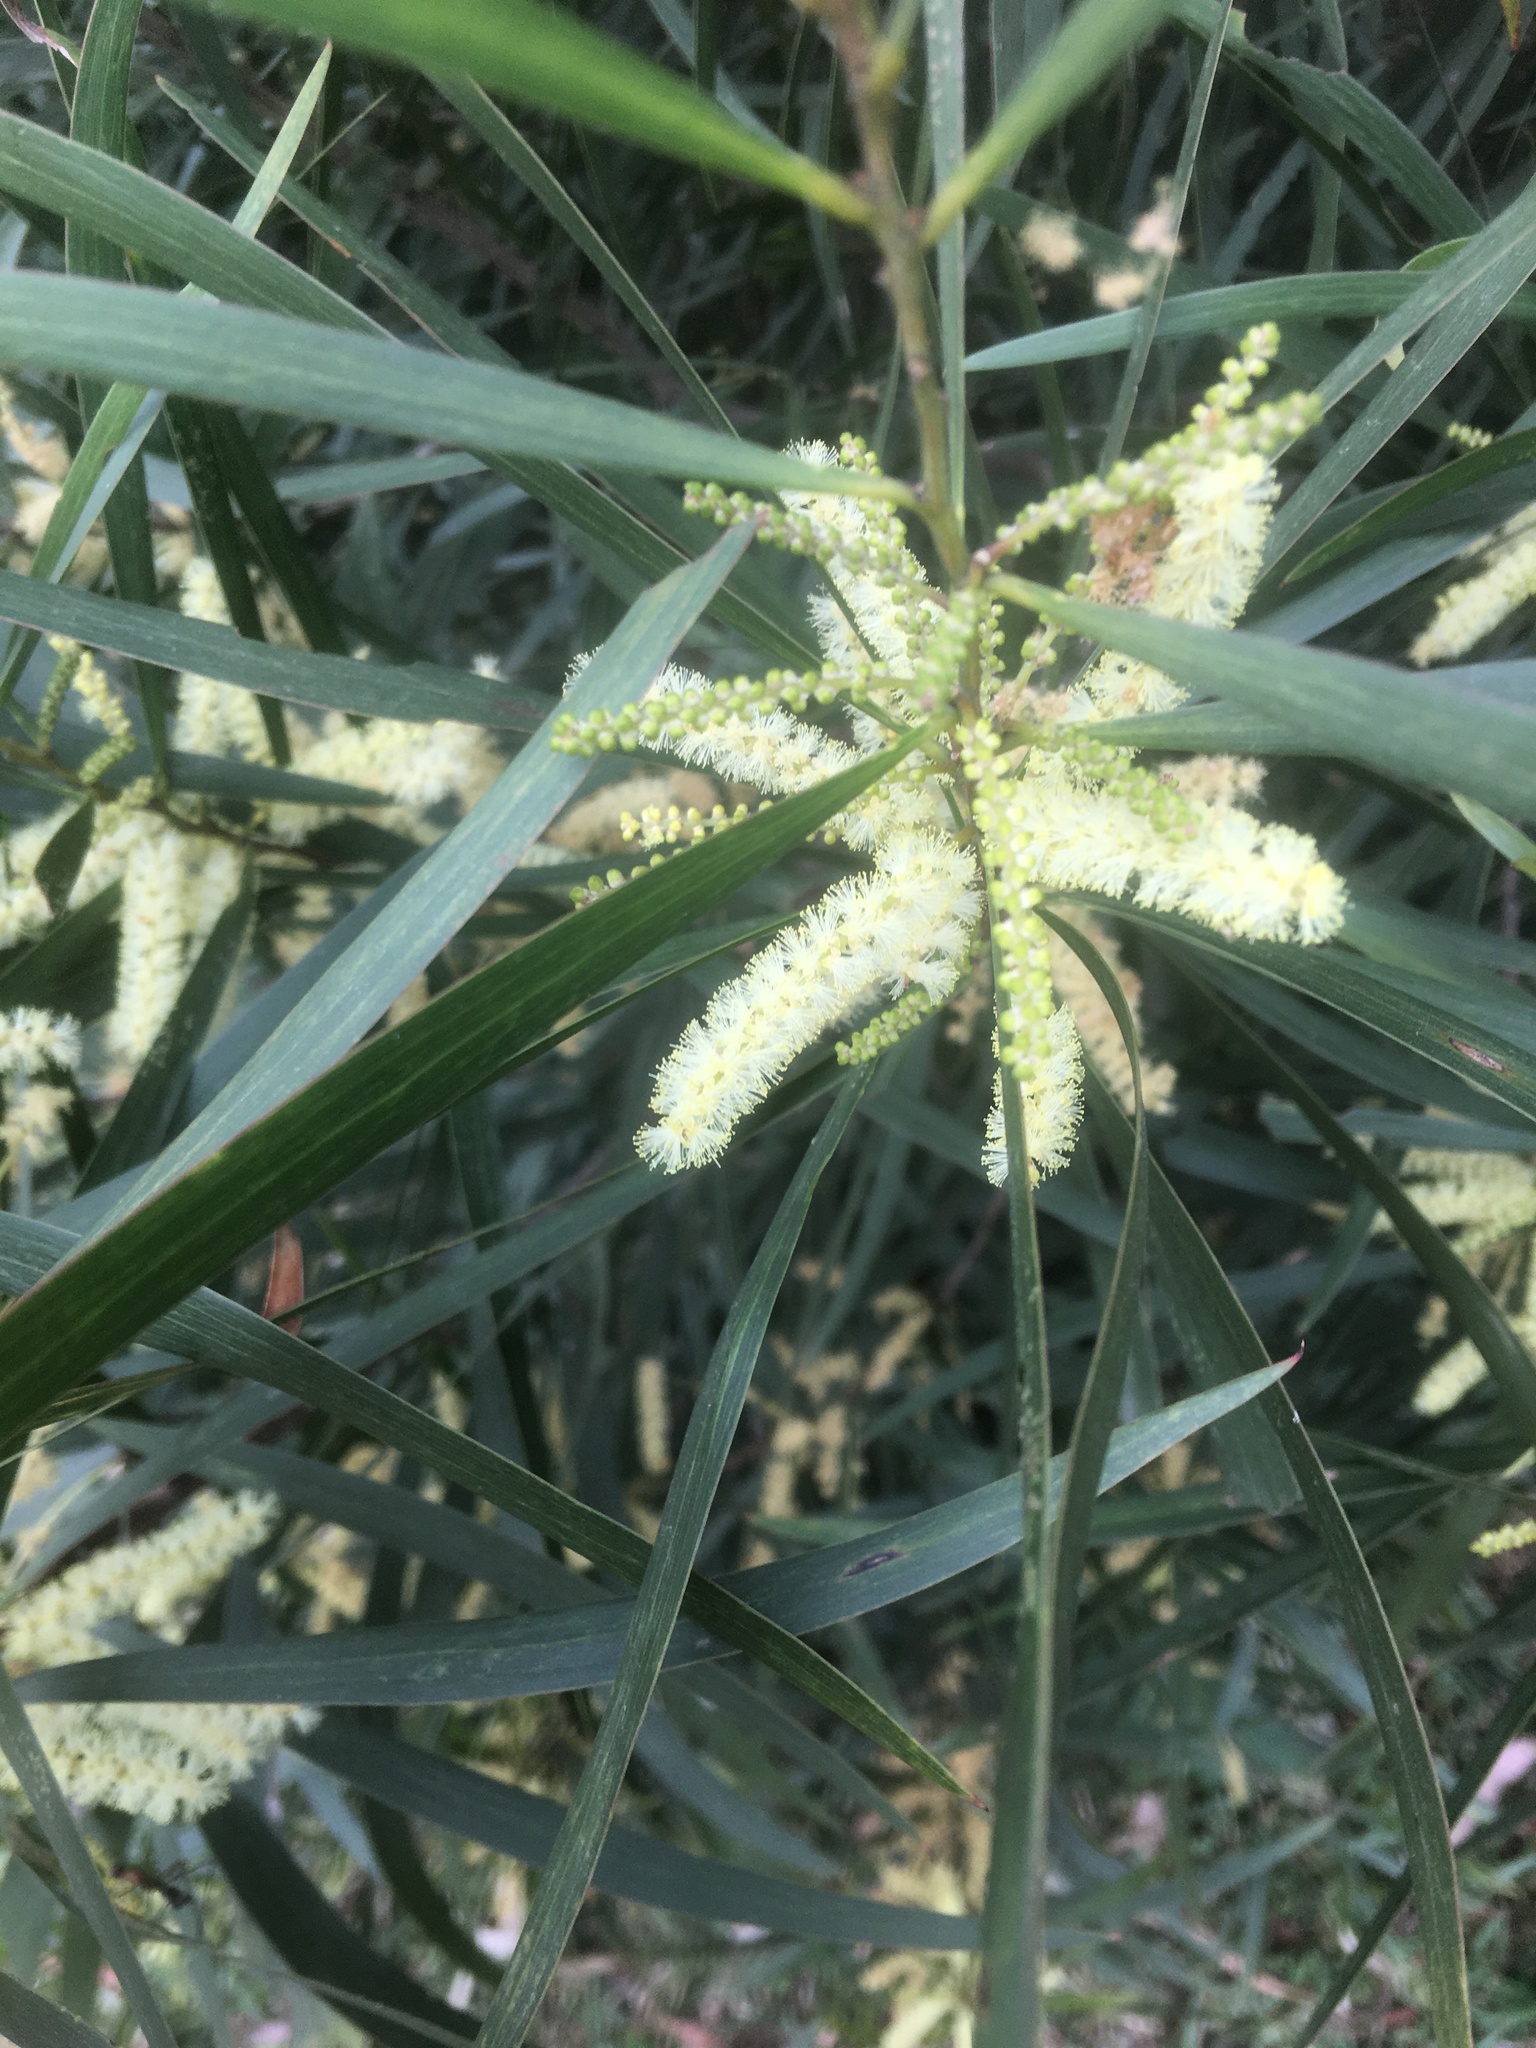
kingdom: Plantae
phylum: Tracheophyta
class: Magnoliopsida
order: Fabales
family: Fabaceae
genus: Acacia
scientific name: Acacia orites
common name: Mountain wattle
